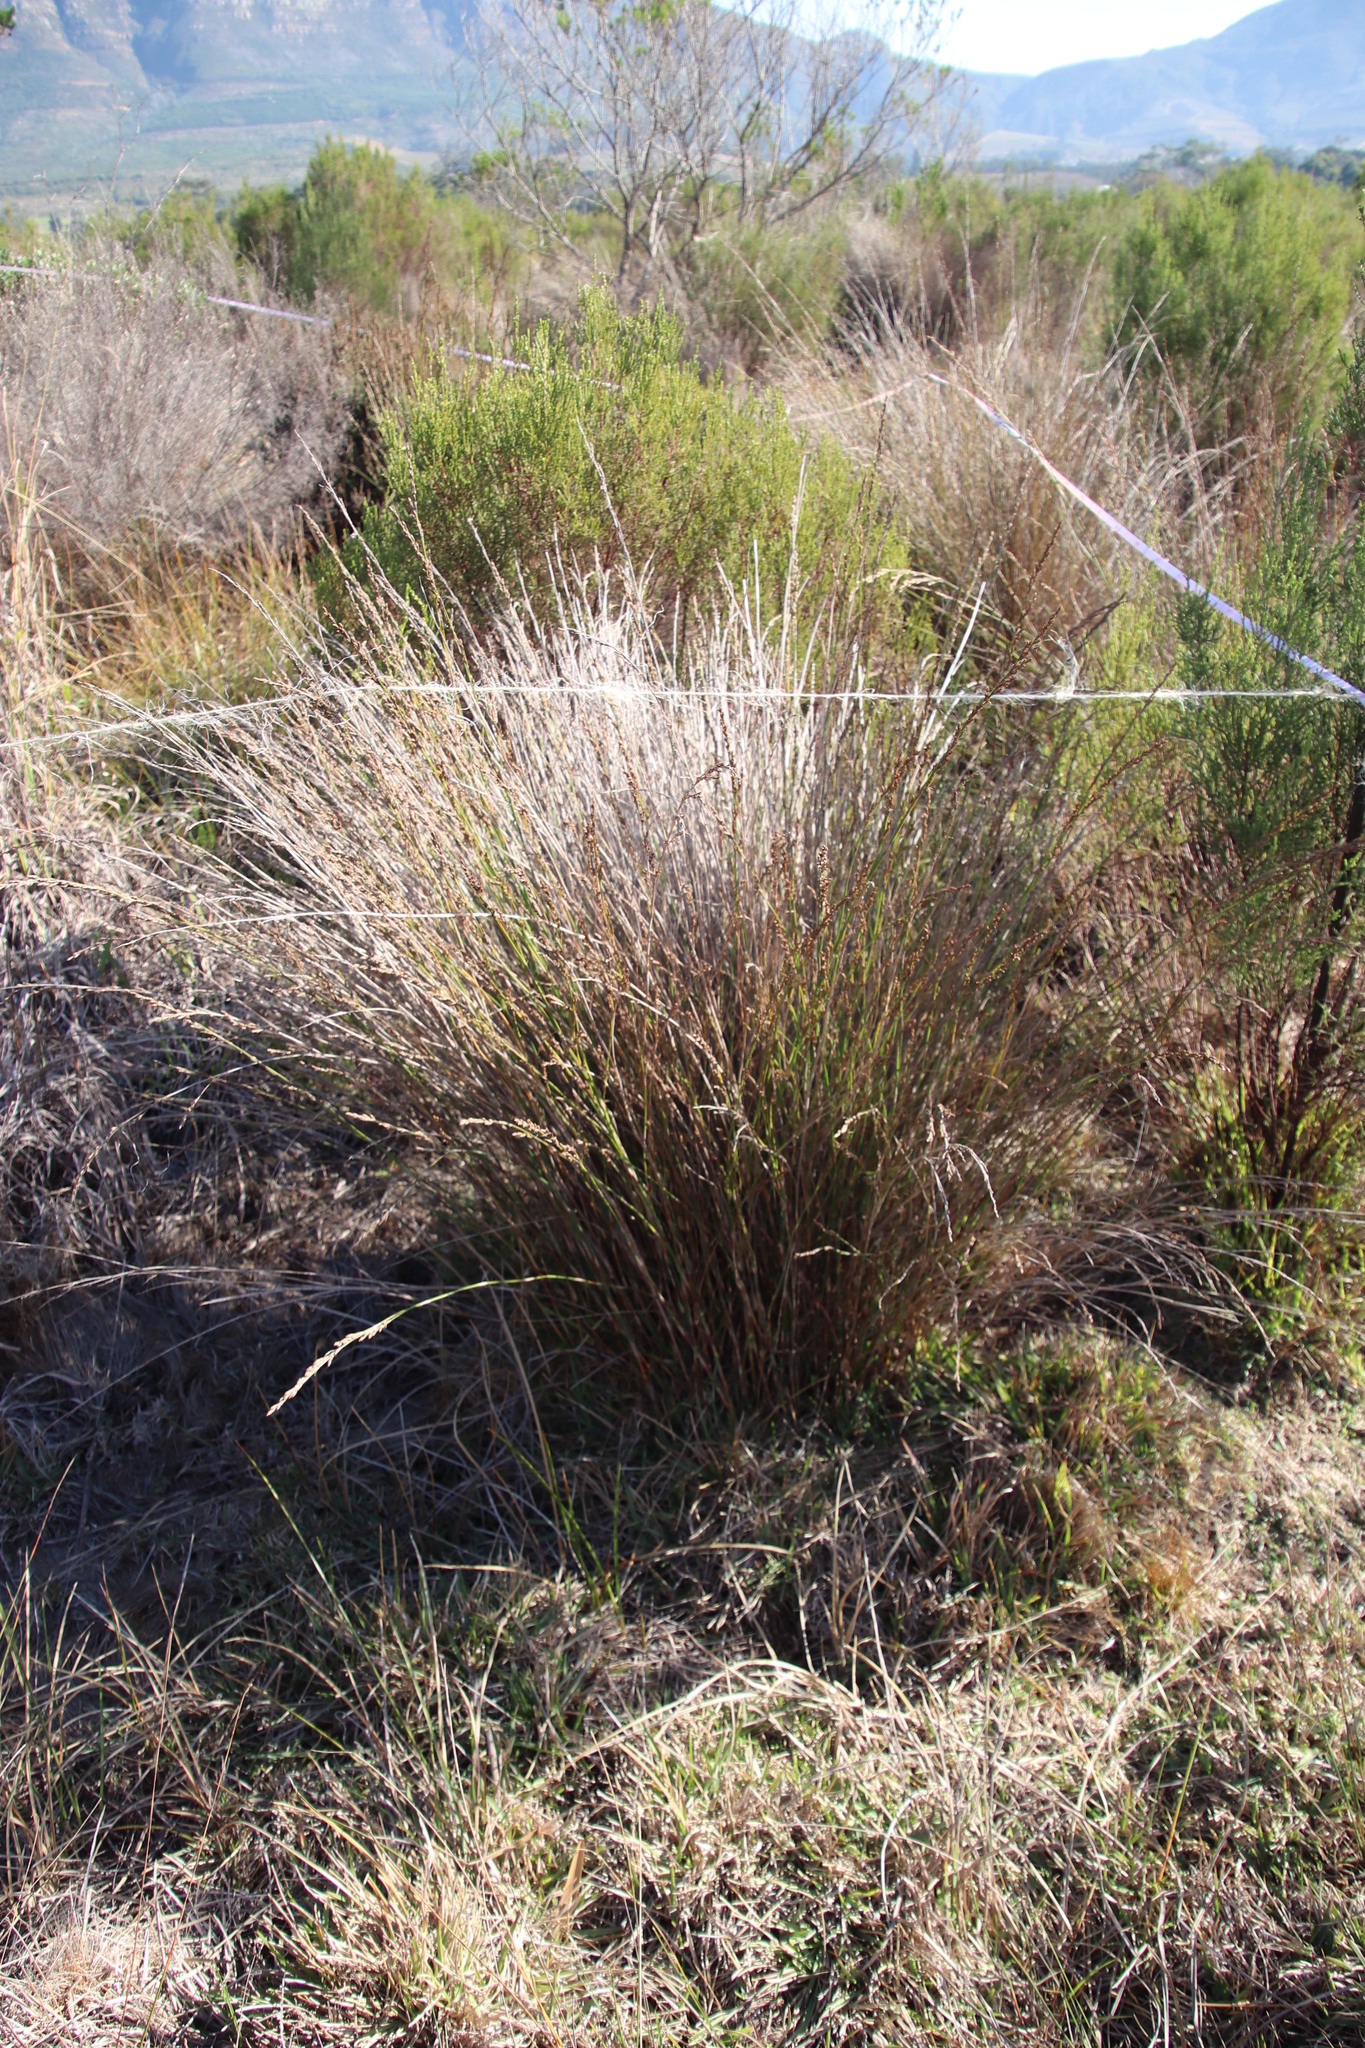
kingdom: Plantae
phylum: Tracheophyta
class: Liliopsida
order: Poales
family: Restionaceae
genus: Restio
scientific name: Restio tetragonus
